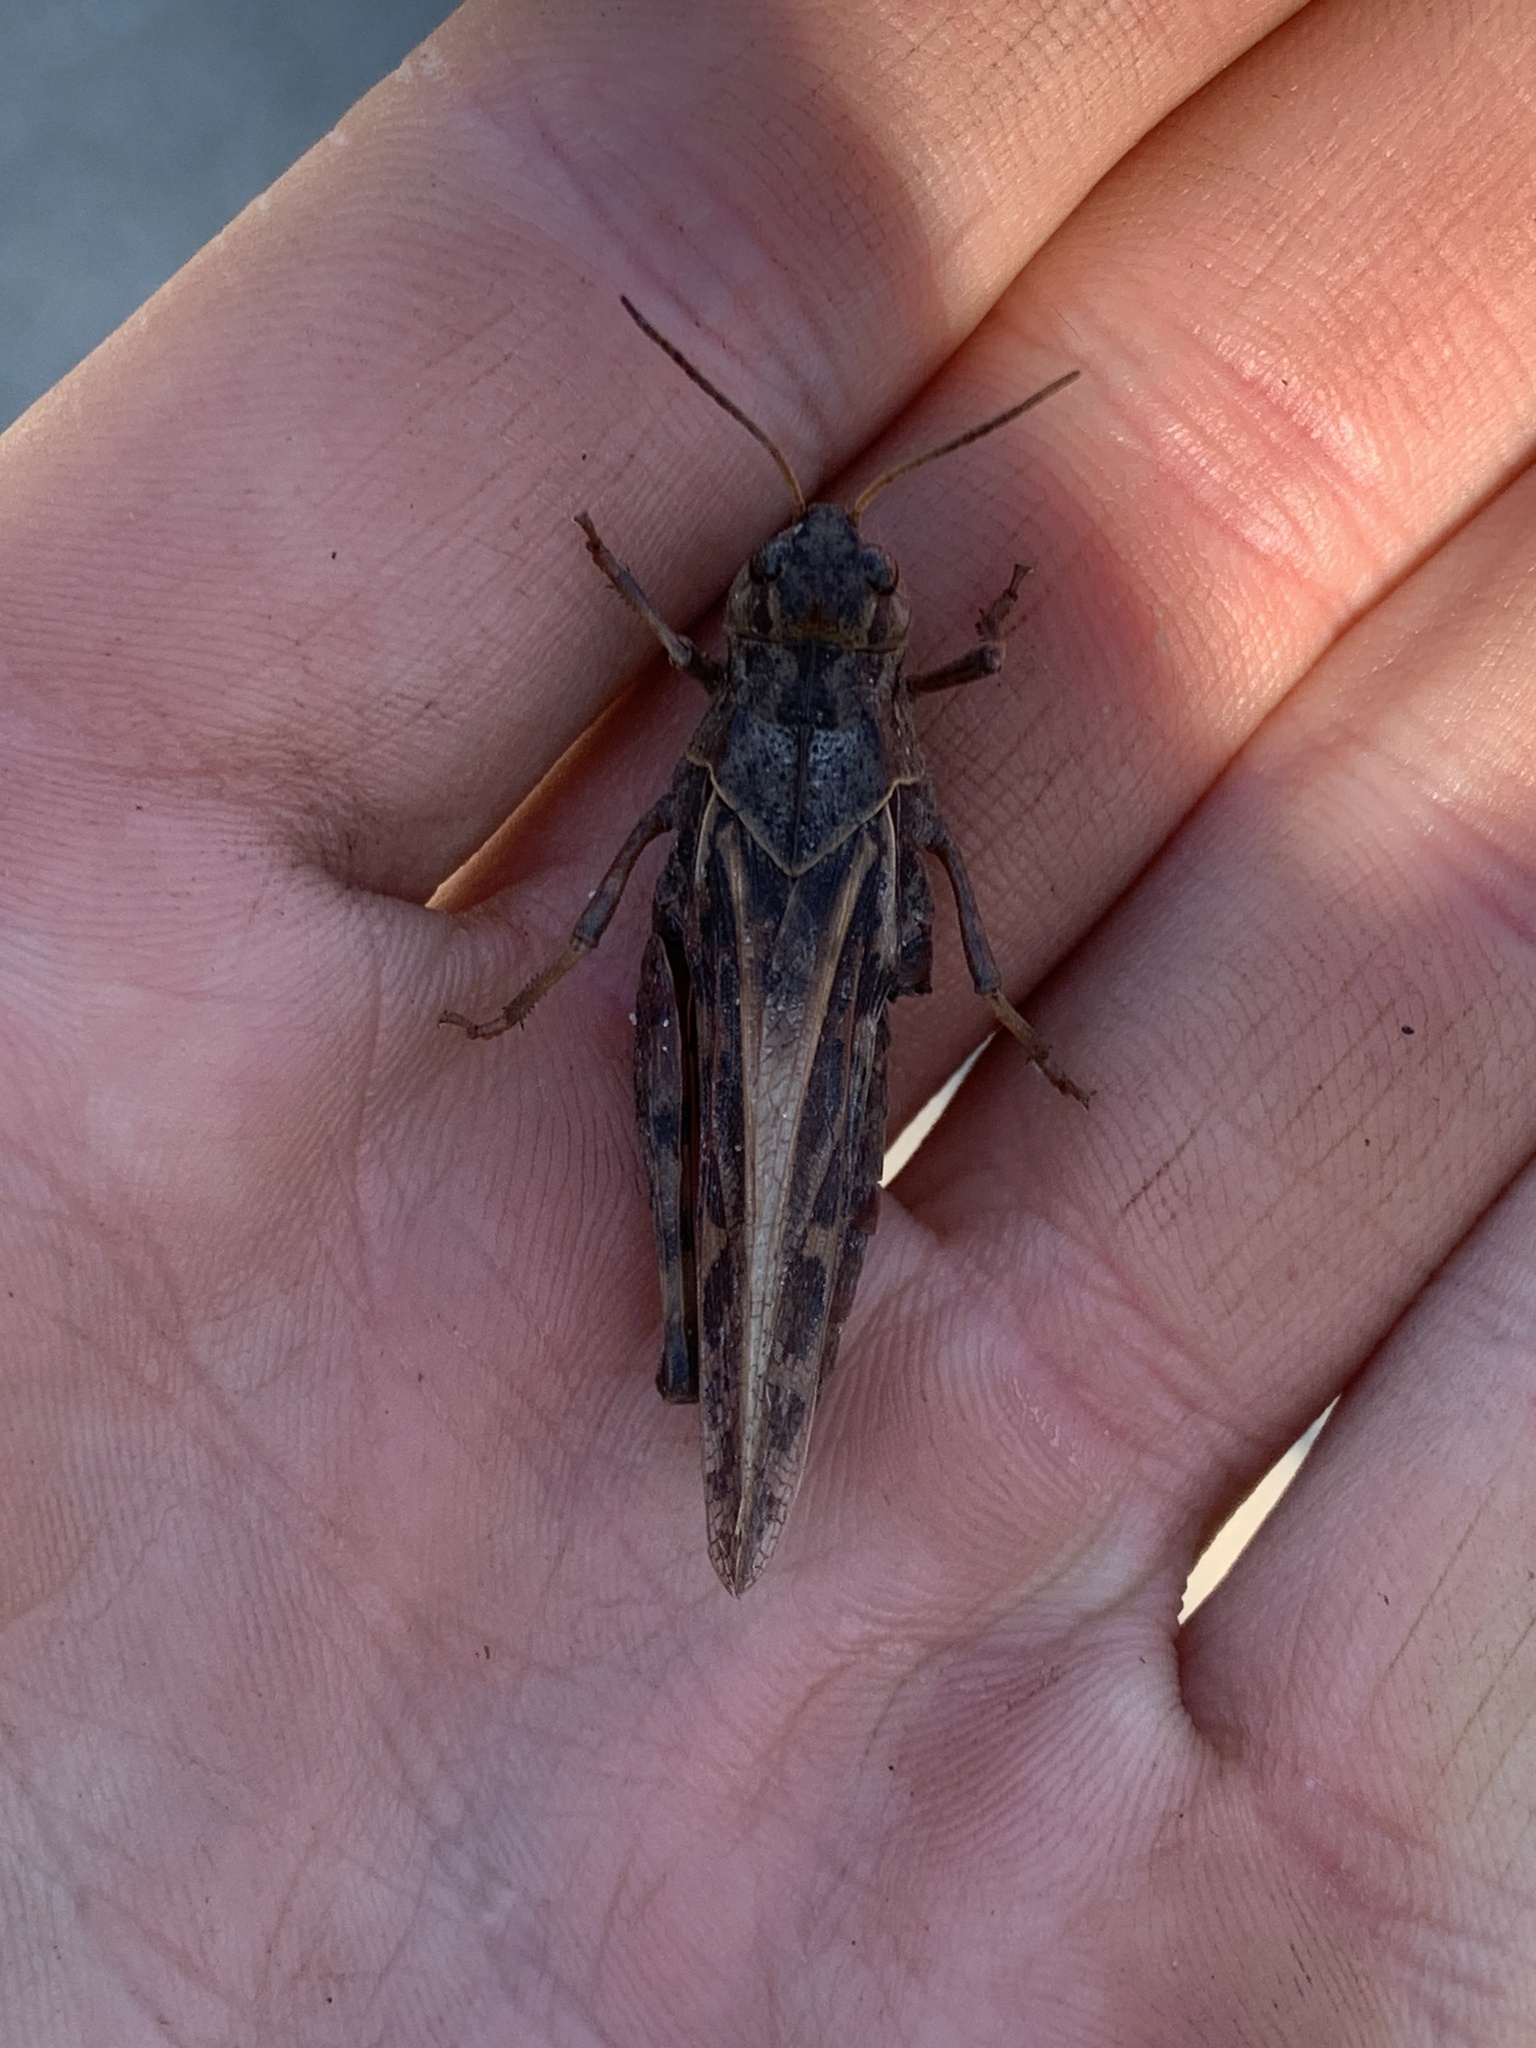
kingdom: Animalia
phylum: Arthropoda
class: Insecta
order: Orthoptera
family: Acrididae
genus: Pardalophora
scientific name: Pardalophora apiculata
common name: Coral-winged locust
